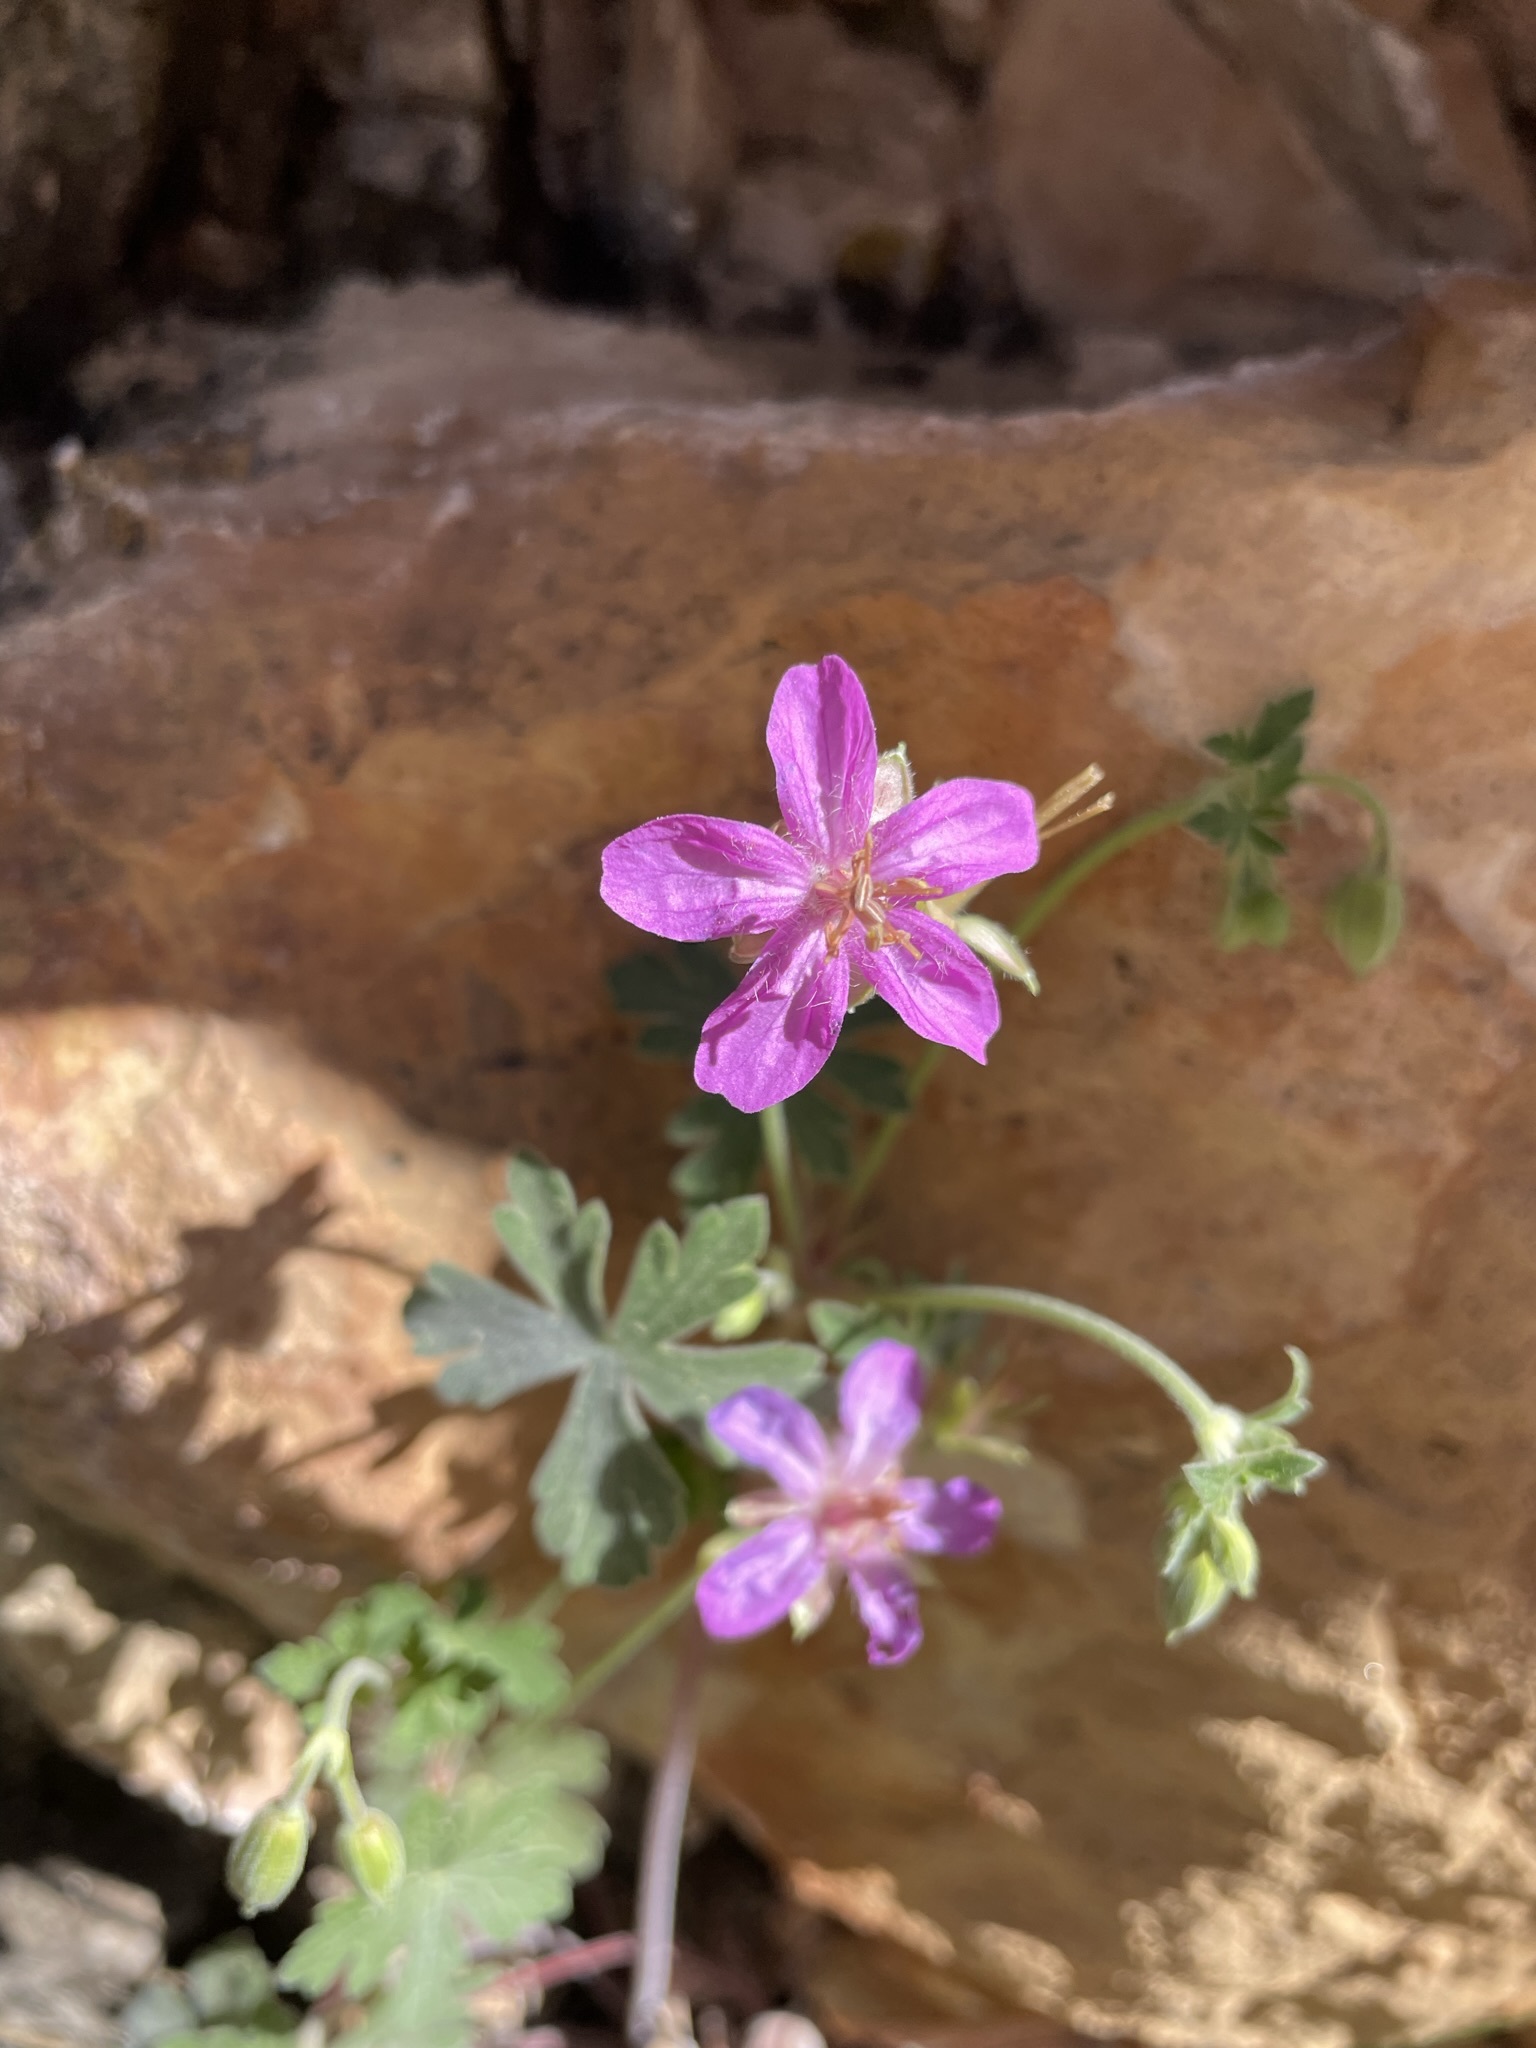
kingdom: Plantae
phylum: Tracheophyta
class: Magnoliopsida
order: Geraniales
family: Geraniaceae
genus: Geranium
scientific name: Geranium caespitosum
